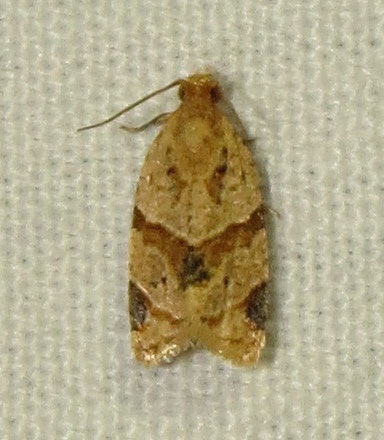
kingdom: Animalia
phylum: Arthropoda
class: Insecta
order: Lepidoptera
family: Tortricidae
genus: Clepsis
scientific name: Clepsis peritana
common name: Garden tortrix
